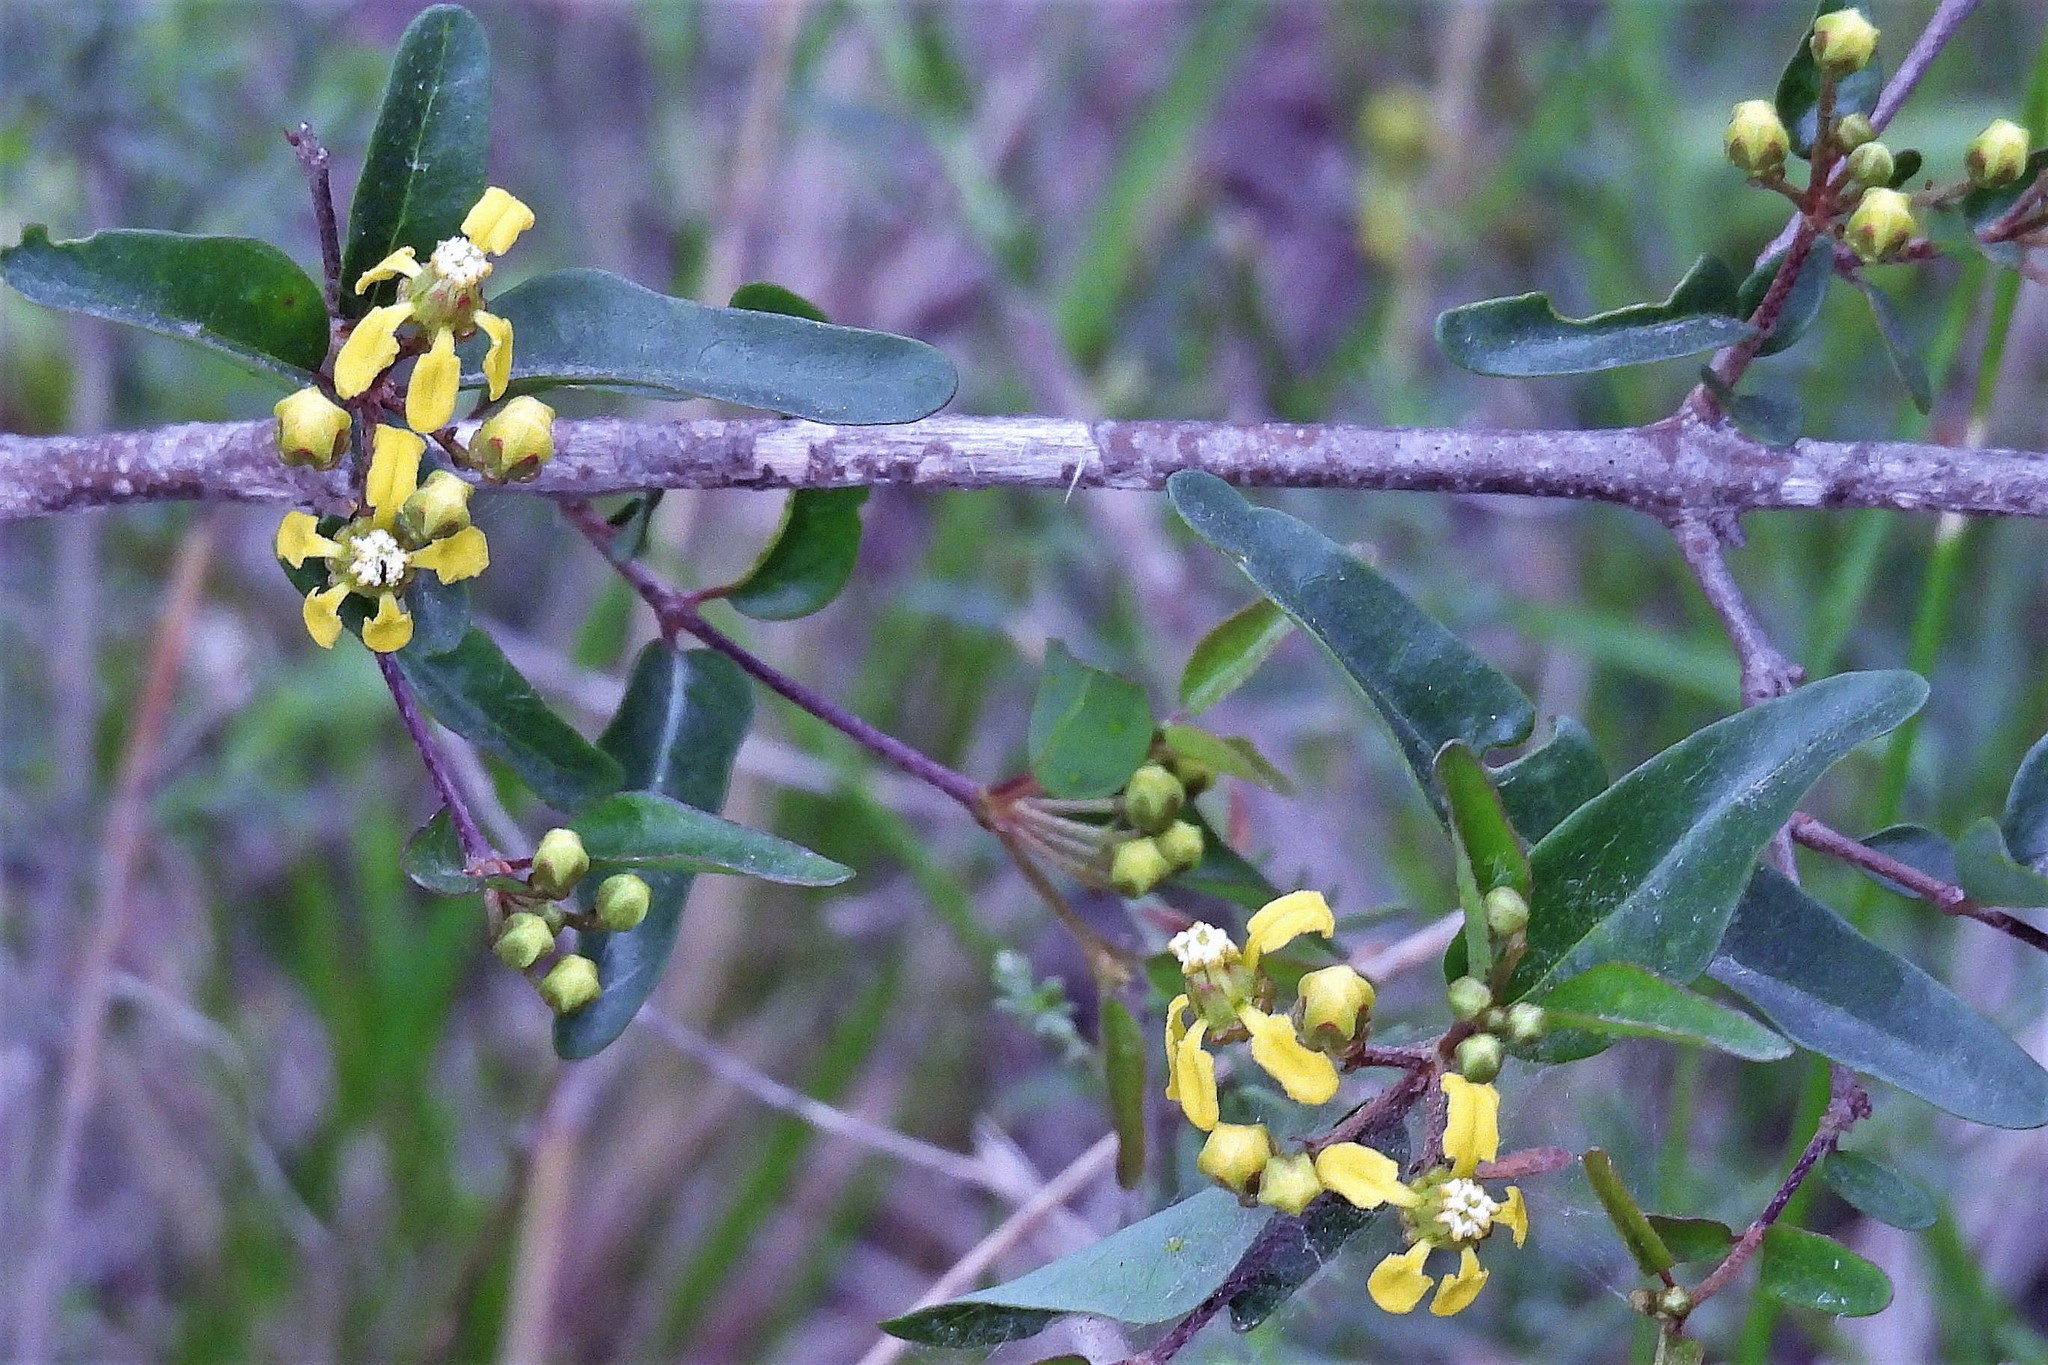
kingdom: Plantae
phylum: Tracheophyta
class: Magnoliopsida
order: Malpighiales
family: Malpighiaceae
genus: Janusia
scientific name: Janusia guaranitica
